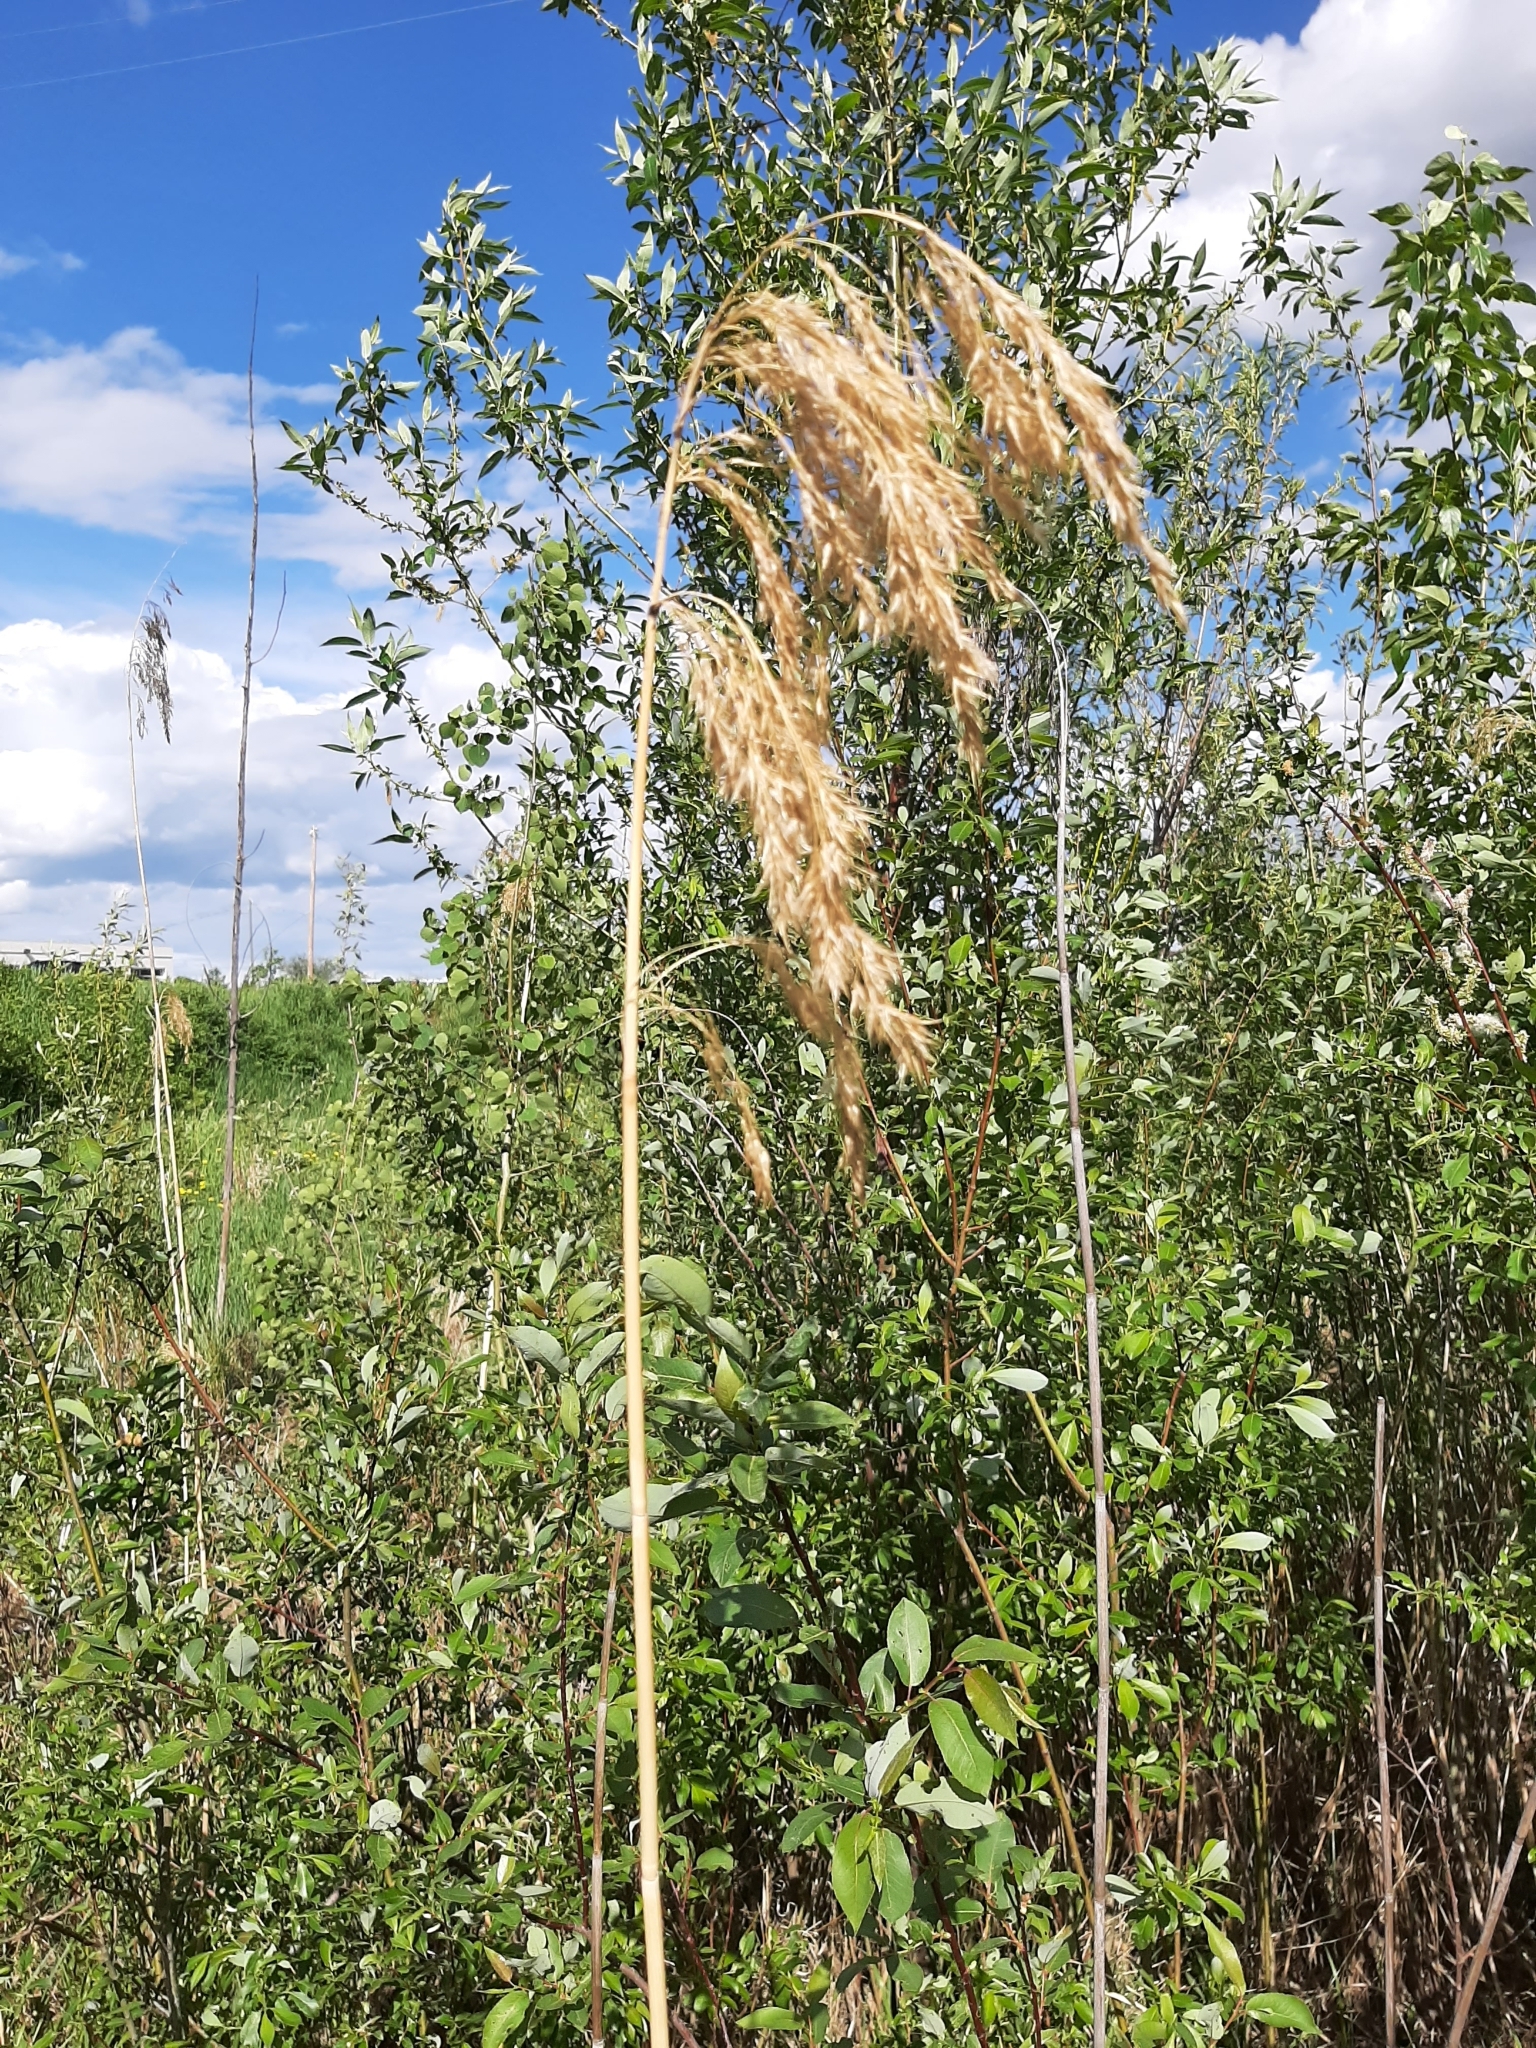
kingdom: Plantae
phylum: Tracheophyta
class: Liliopsida
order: Poales
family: Poaceae
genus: Phragmites
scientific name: Phragmites australis
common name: Common reed
